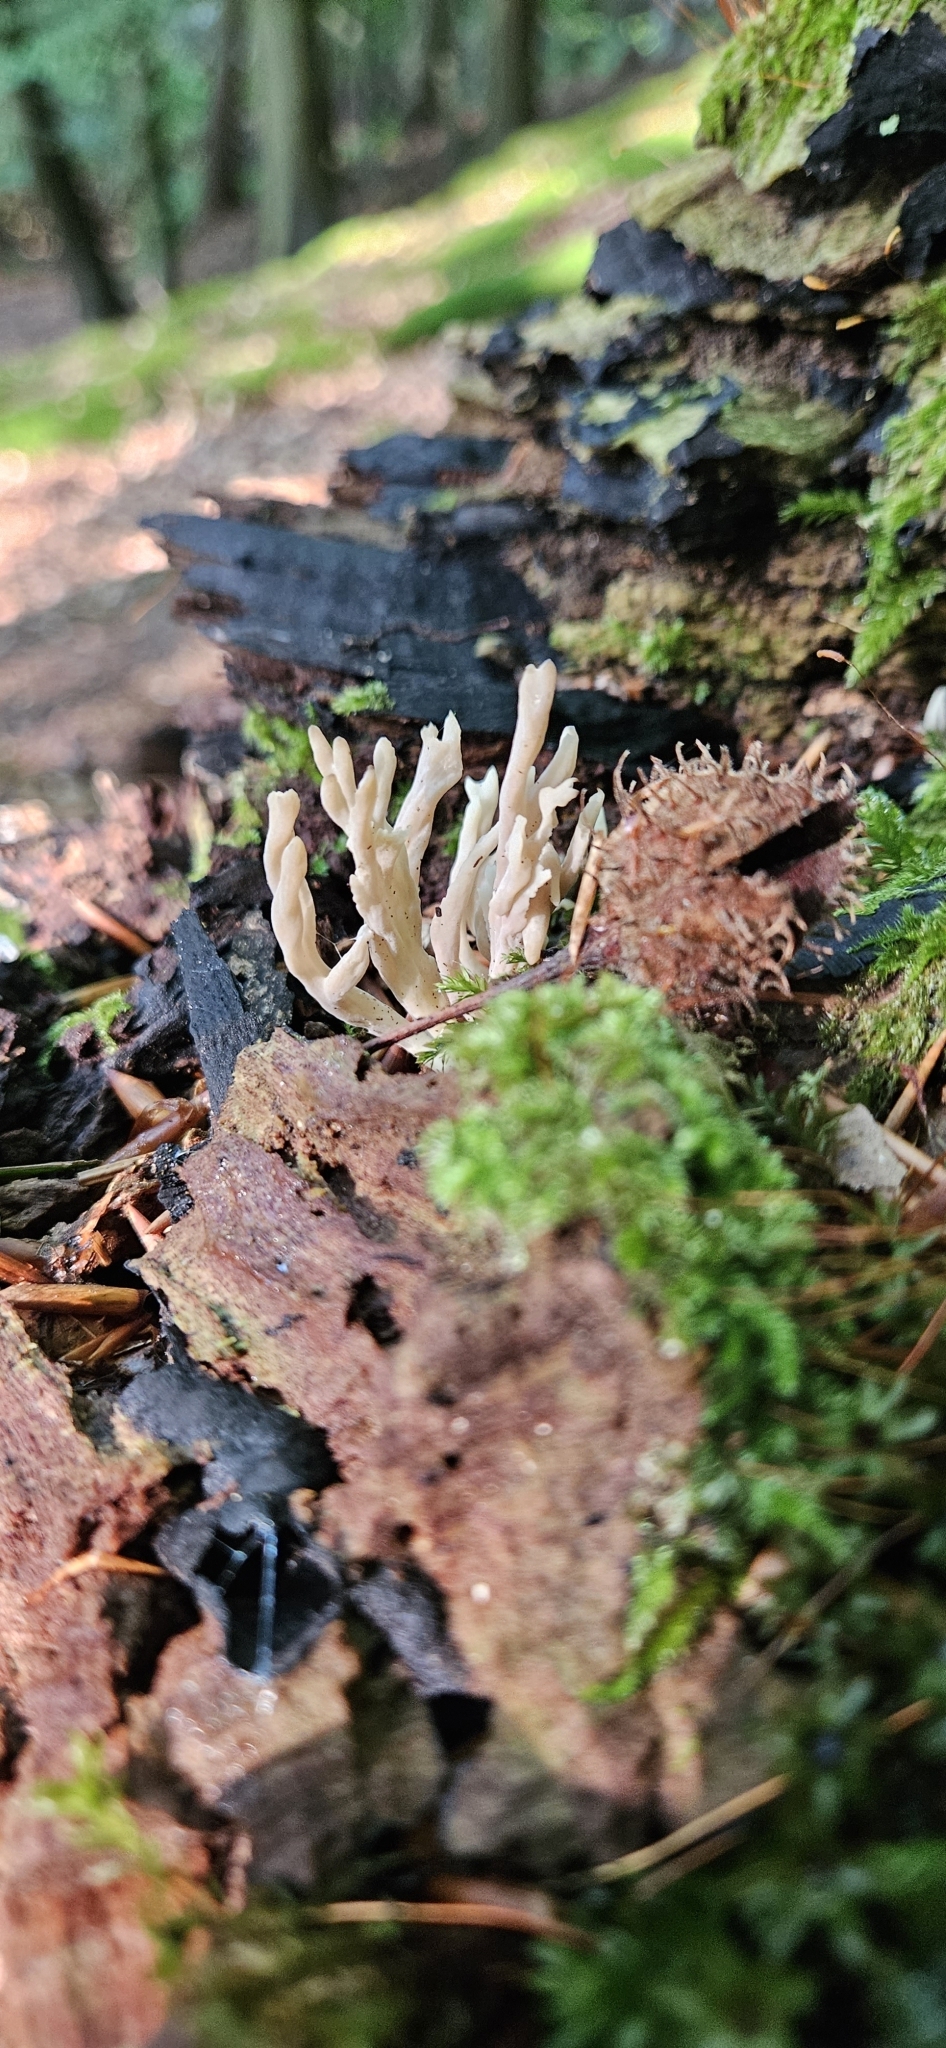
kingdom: Fungi
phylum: Basidiomycota
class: Agaricomycetes
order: Cantharellales
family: Hydnaceae
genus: Clavulina
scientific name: Clavulina cinerea
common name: Grey coral
